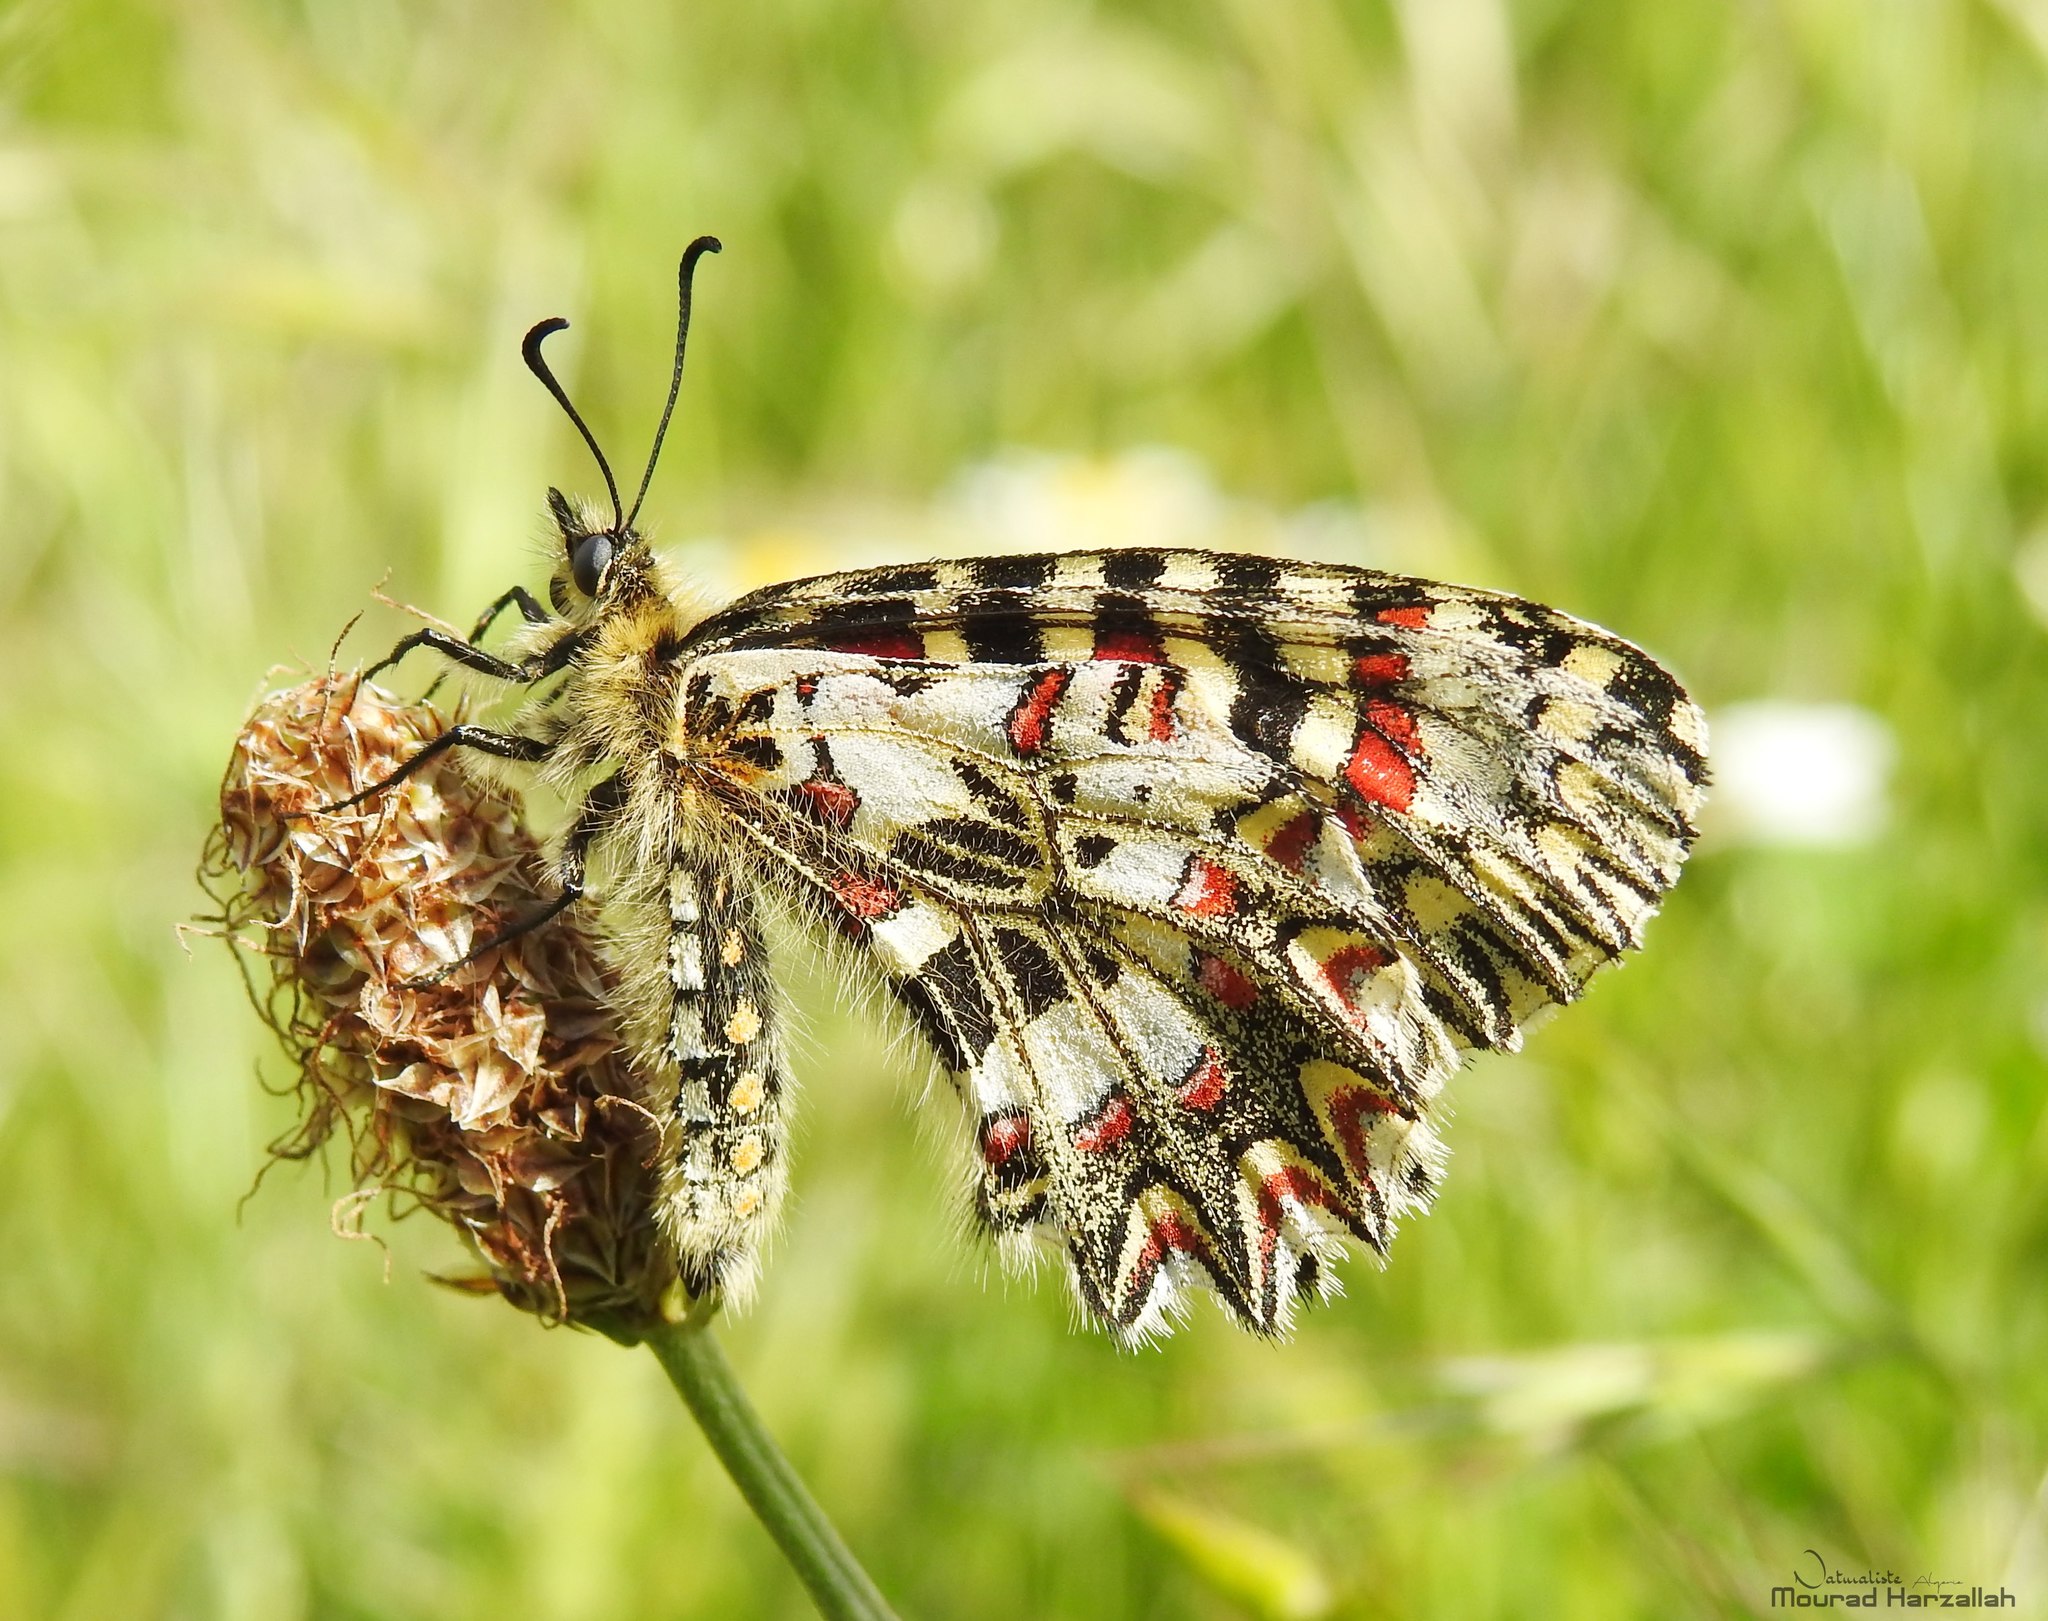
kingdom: Animalia
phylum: Arthropoda
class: Insecta
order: Lepidoptera
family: Papilionidae
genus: Zerynthia
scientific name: Zerynthia rumina
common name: Spanish festoon
